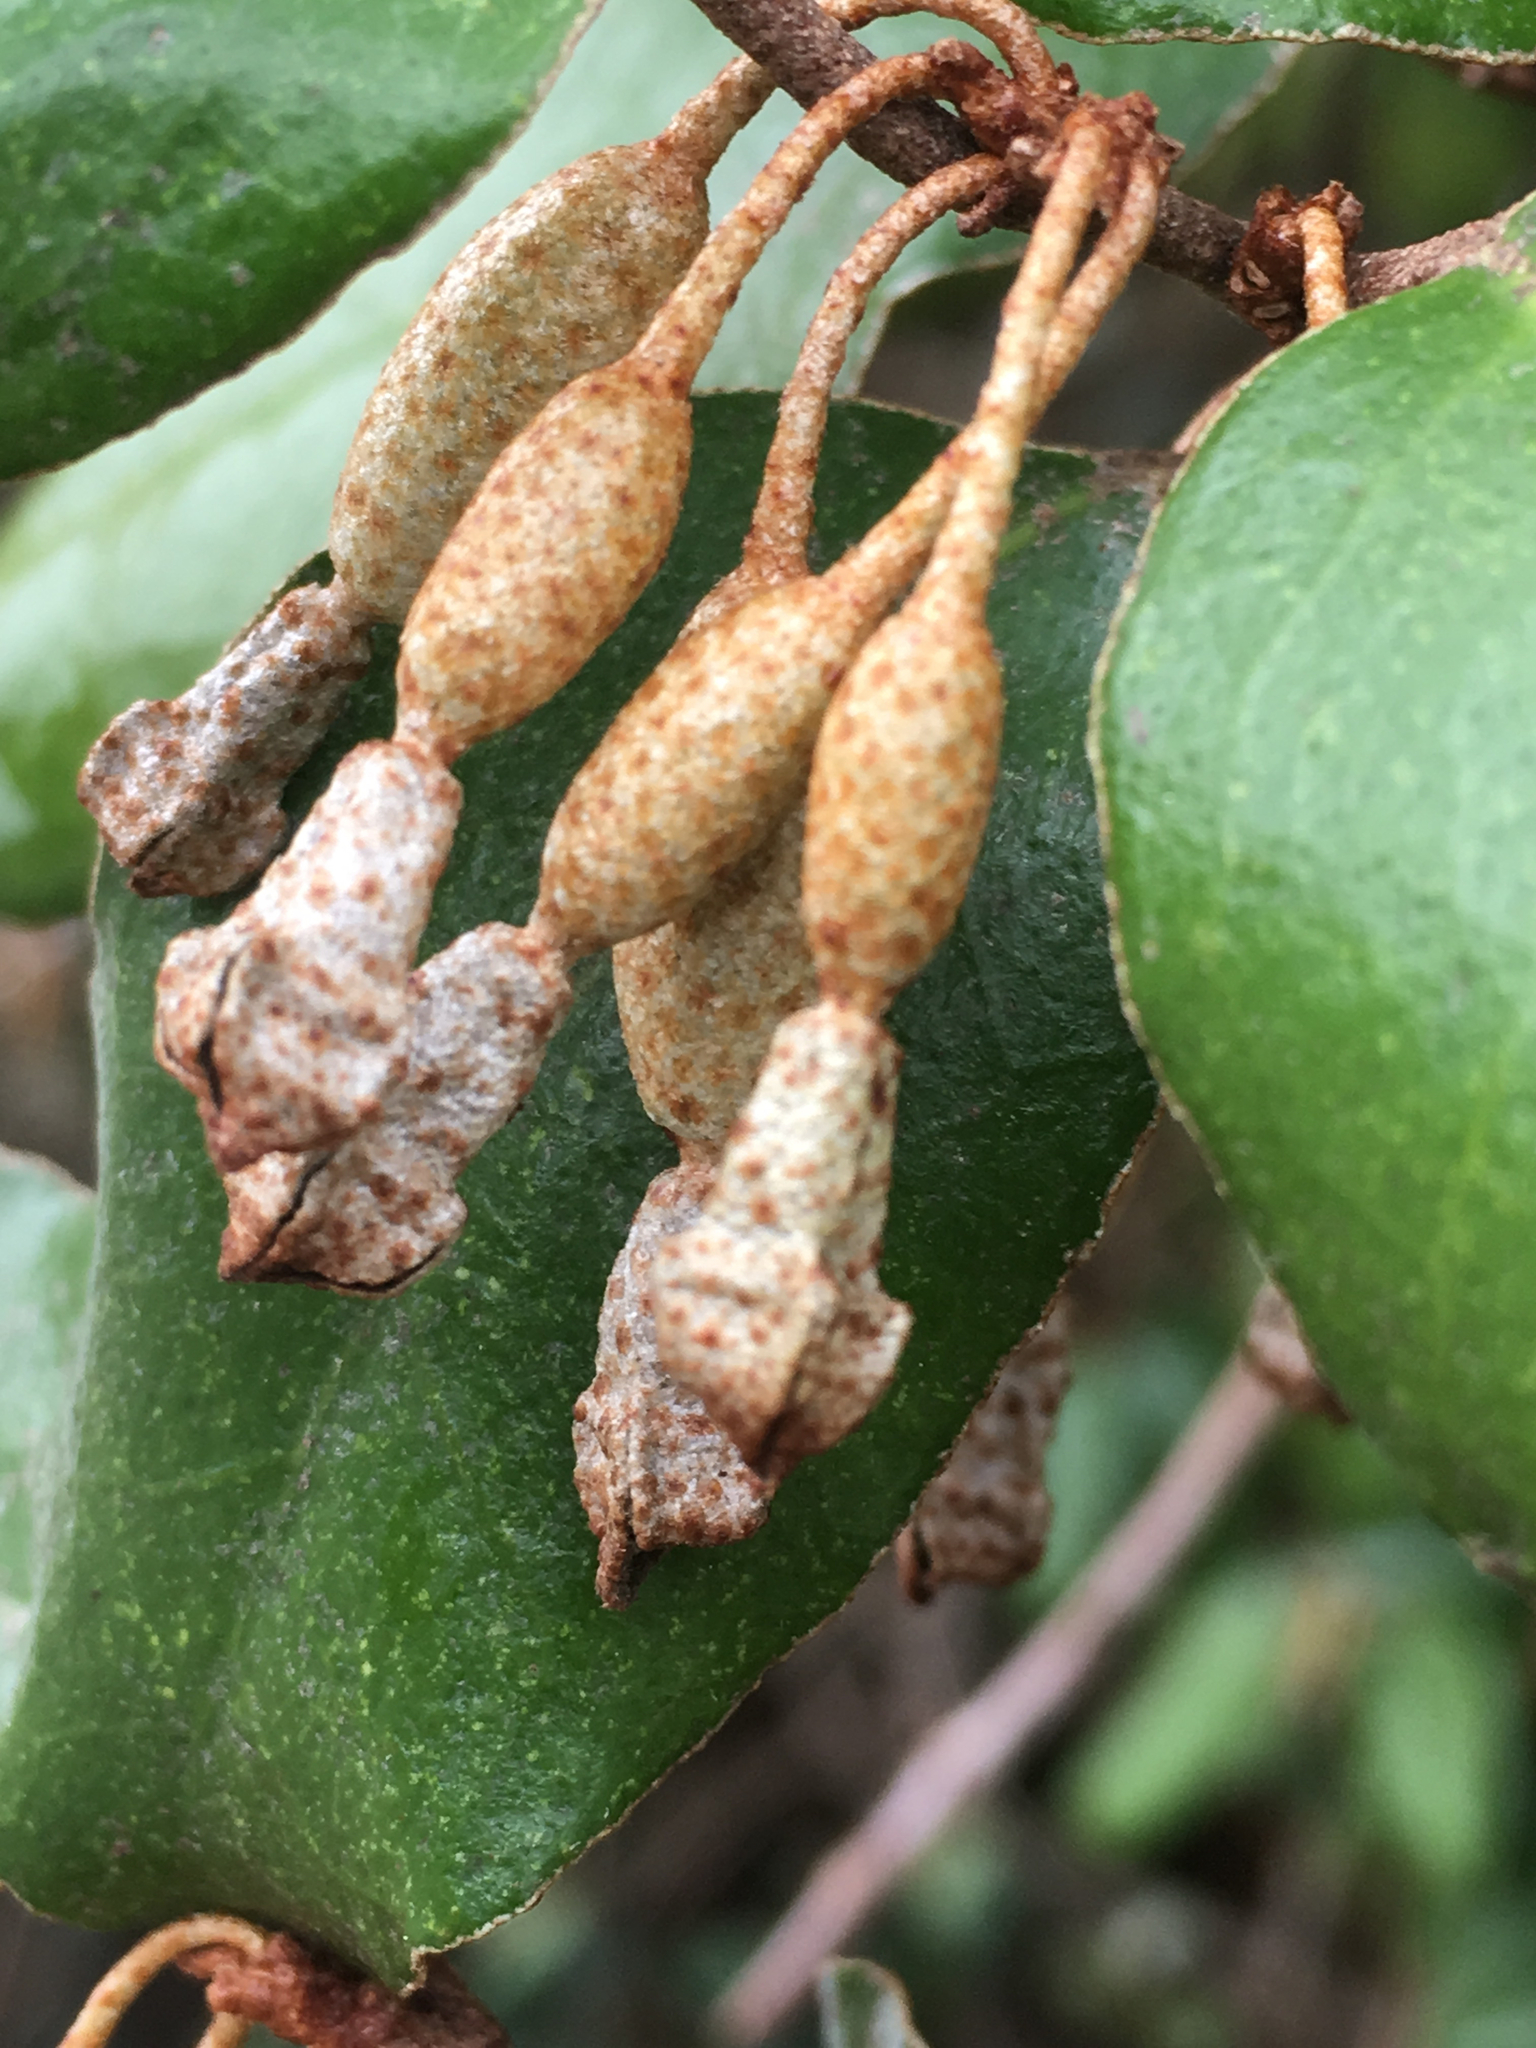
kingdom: Plantae
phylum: Tracheophyta
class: Magnoliopsida
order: Rosales
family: Elaeagnaceae
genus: Elaeagnus
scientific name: Elaeagnus pungens
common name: Spiny oleaster
